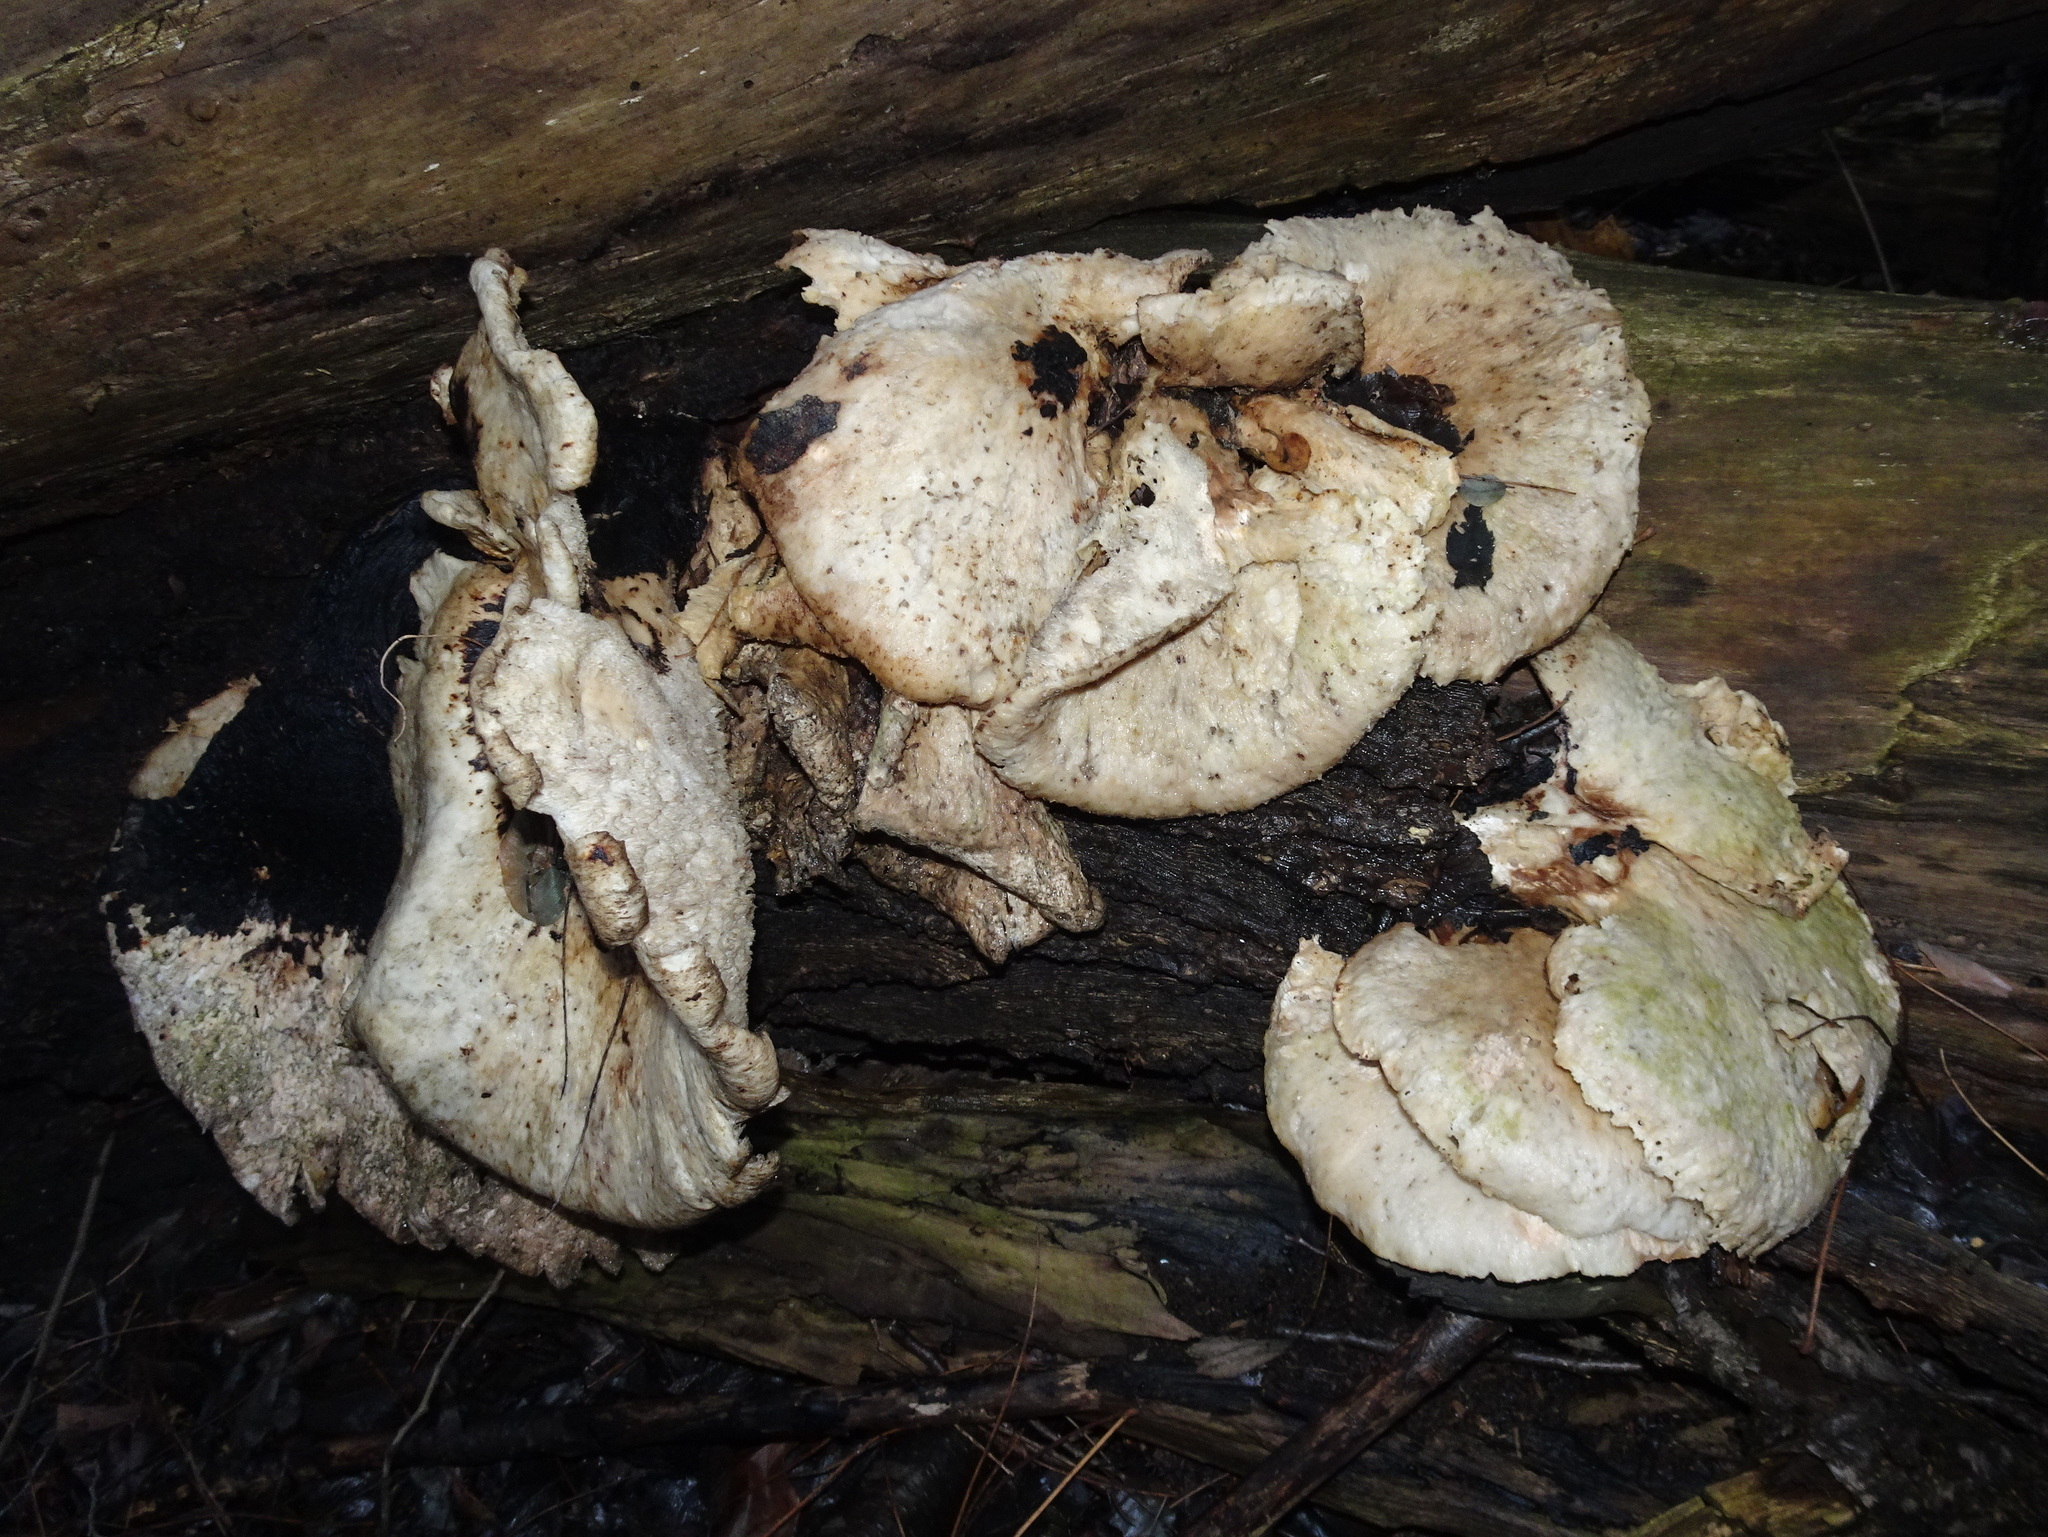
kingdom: Fungi
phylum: Basidiomycota
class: Agaricomycetes
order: Polyporales
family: Polyporaceae
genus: Cerioporus
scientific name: Cerioporus squamosus
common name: Dryad's saddle
